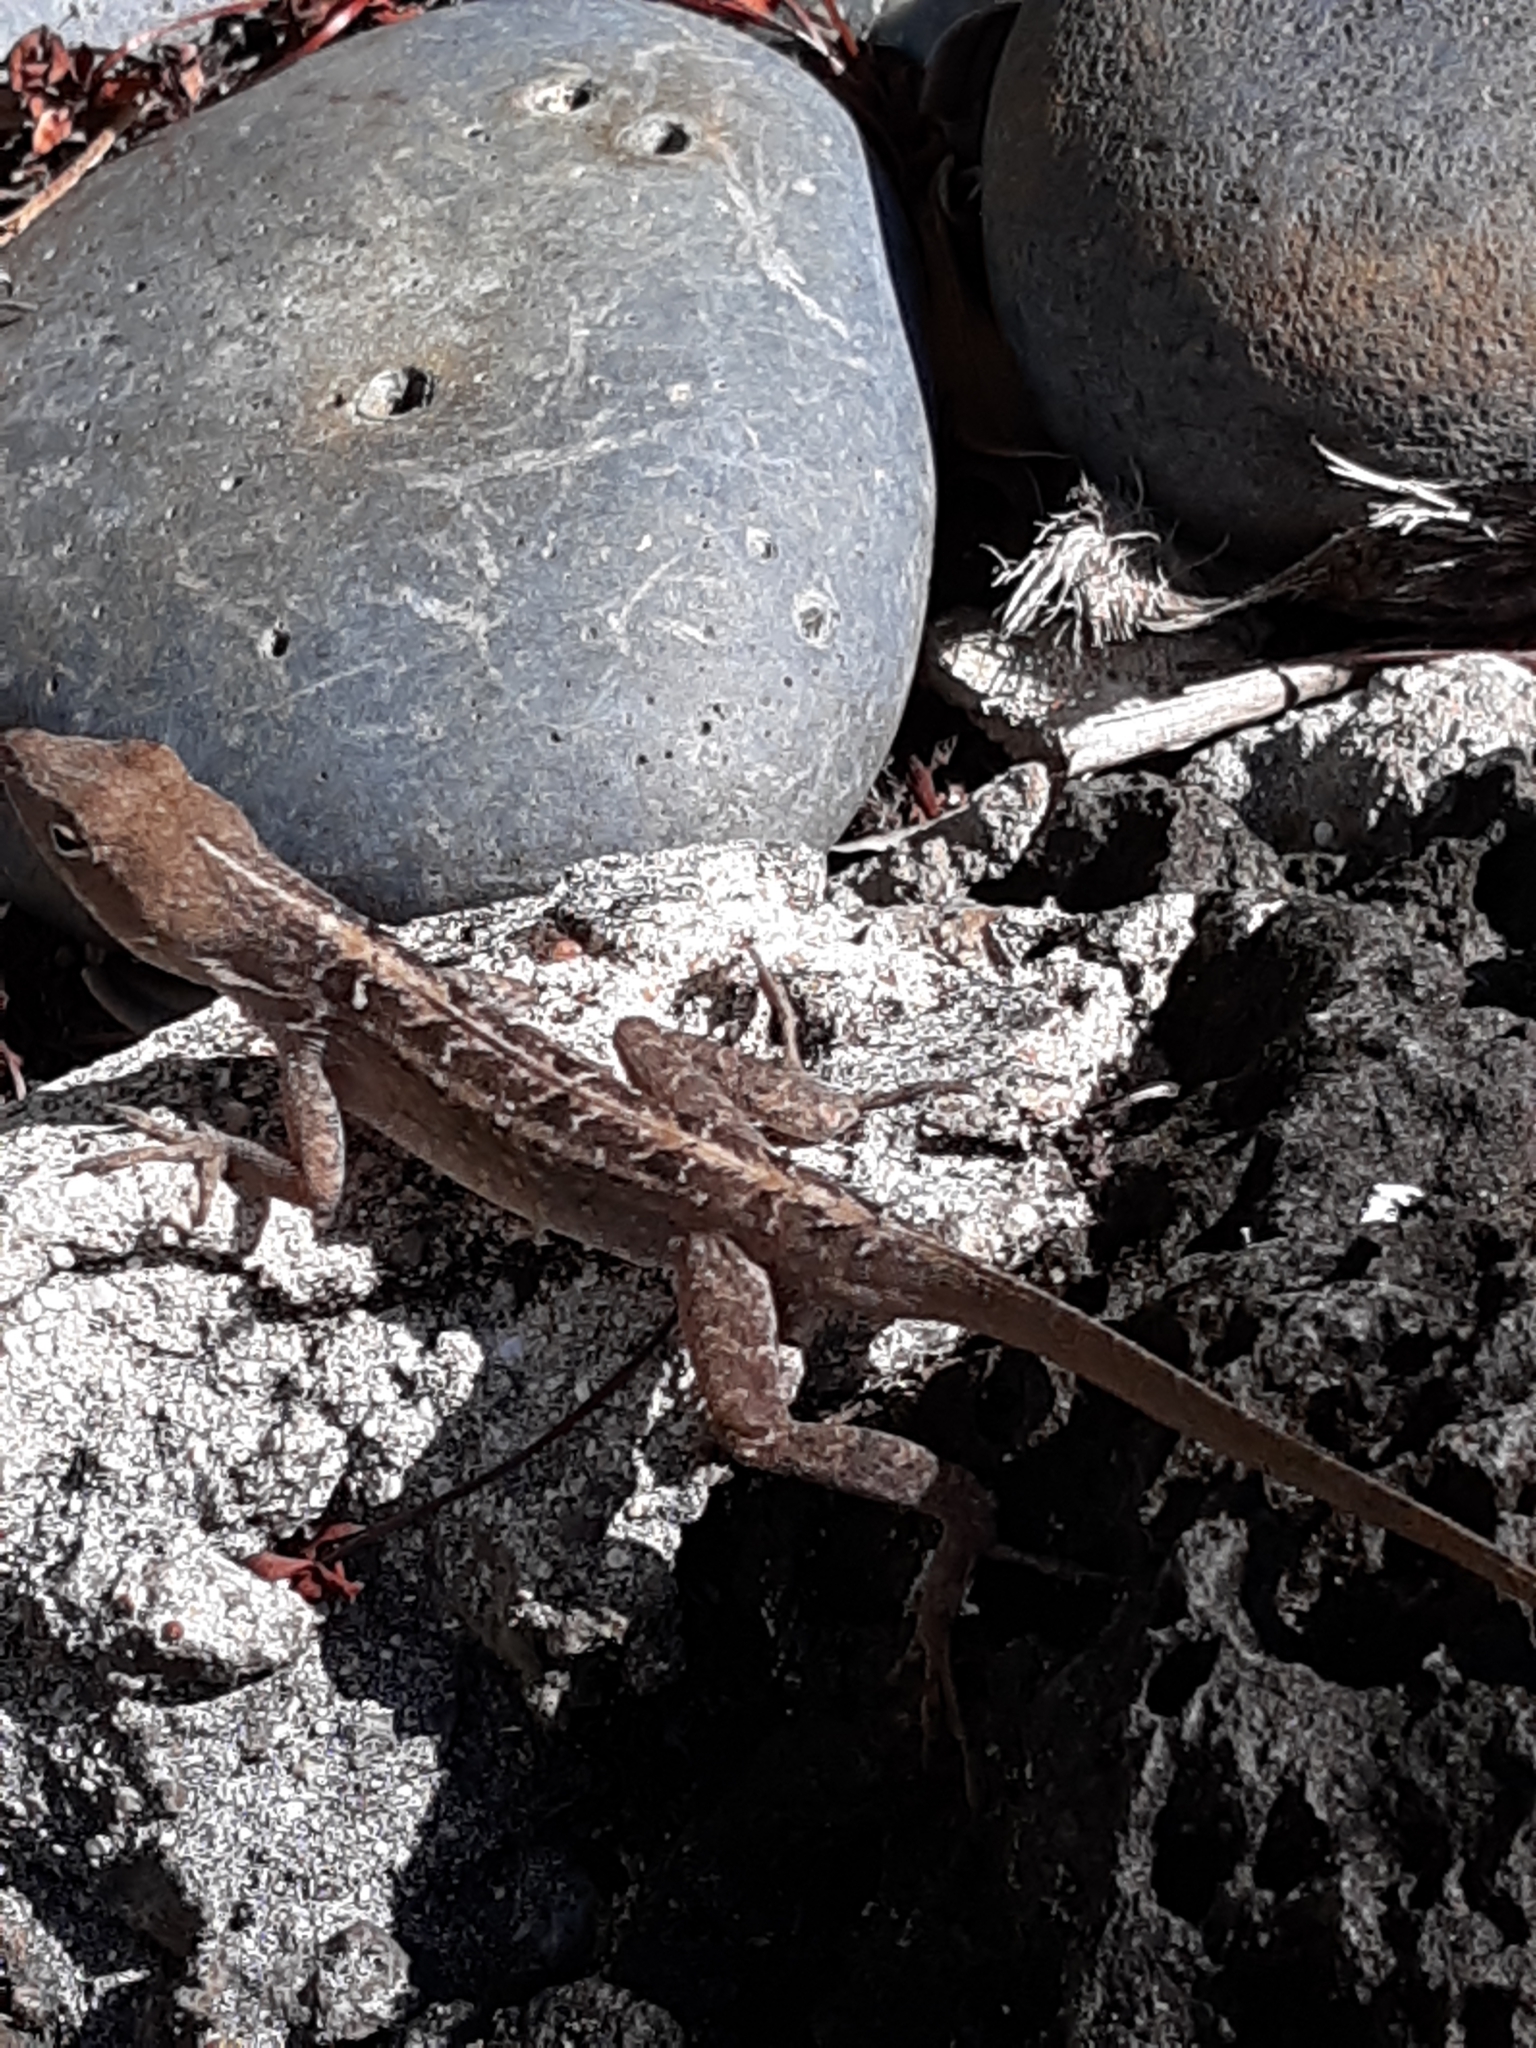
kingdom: Animalia
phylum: Chordata
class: Squamata
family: Dactyloidae
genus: Anolis
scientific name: Anolis sagrei
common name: Brown anole
